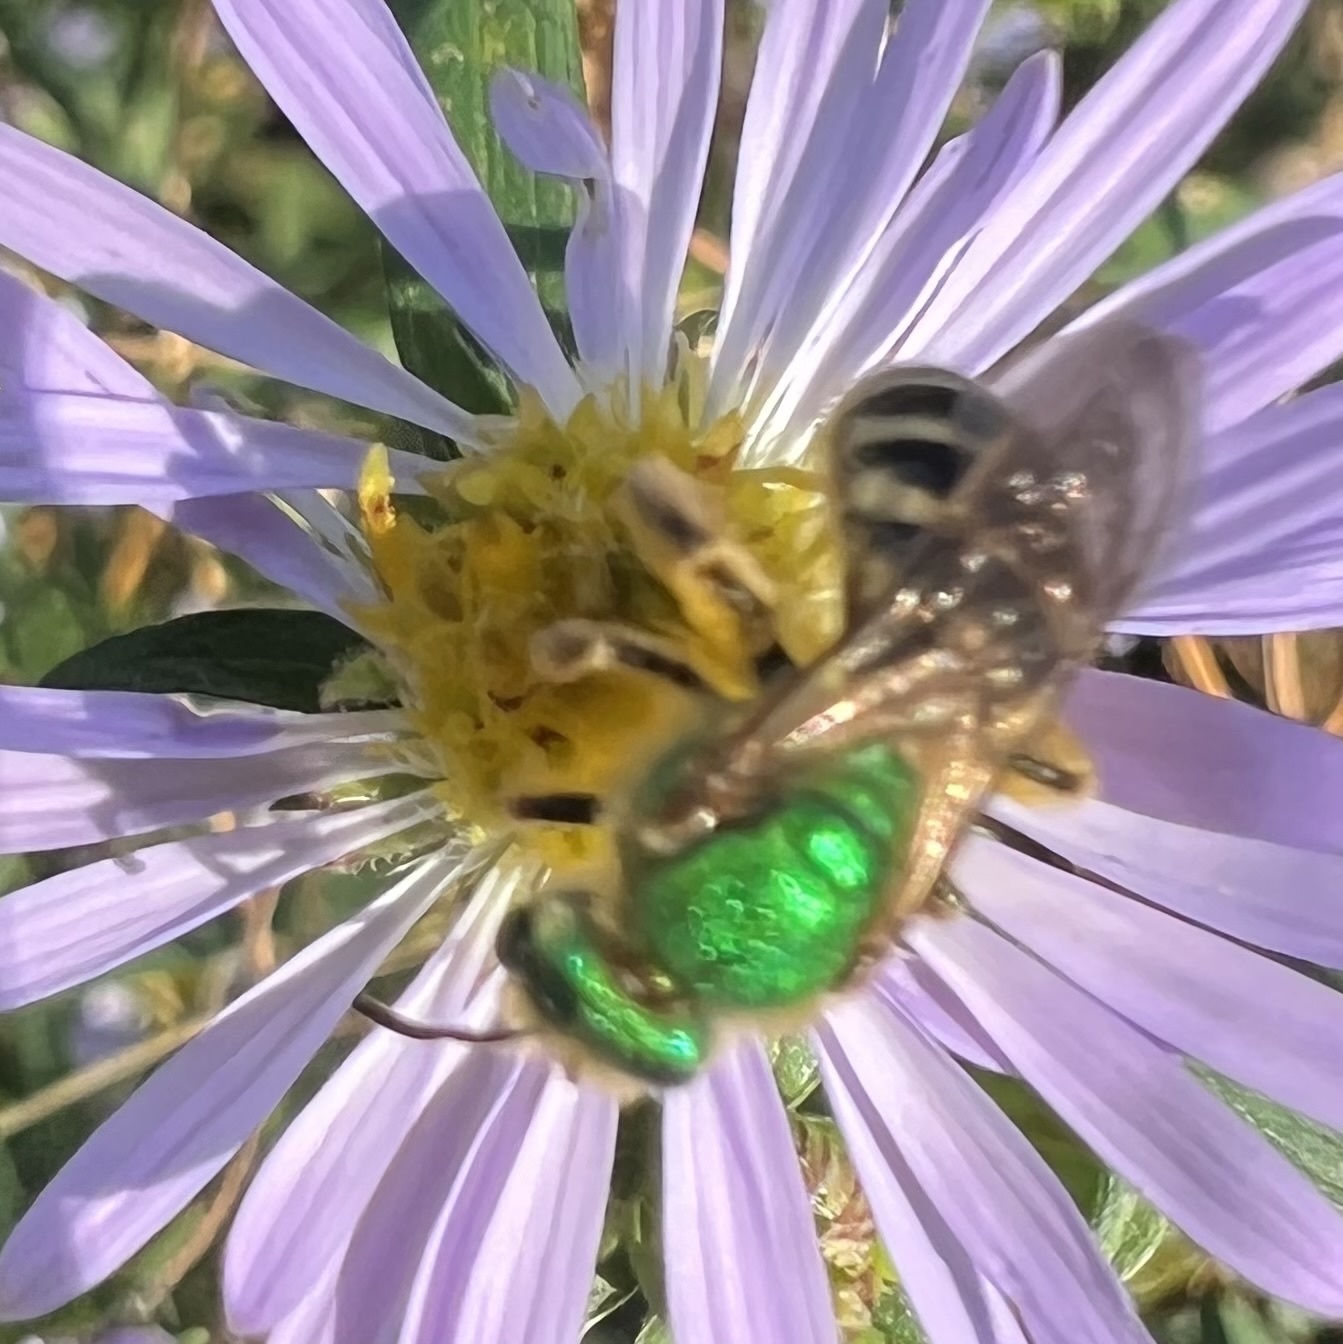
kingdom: Animalia
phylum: Arthropoda
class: Insecta
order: Hymenoptera
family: Halictidae
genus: Agapostemon
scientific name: Agapostemon virescens
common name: Bicolored striped sweat bee
